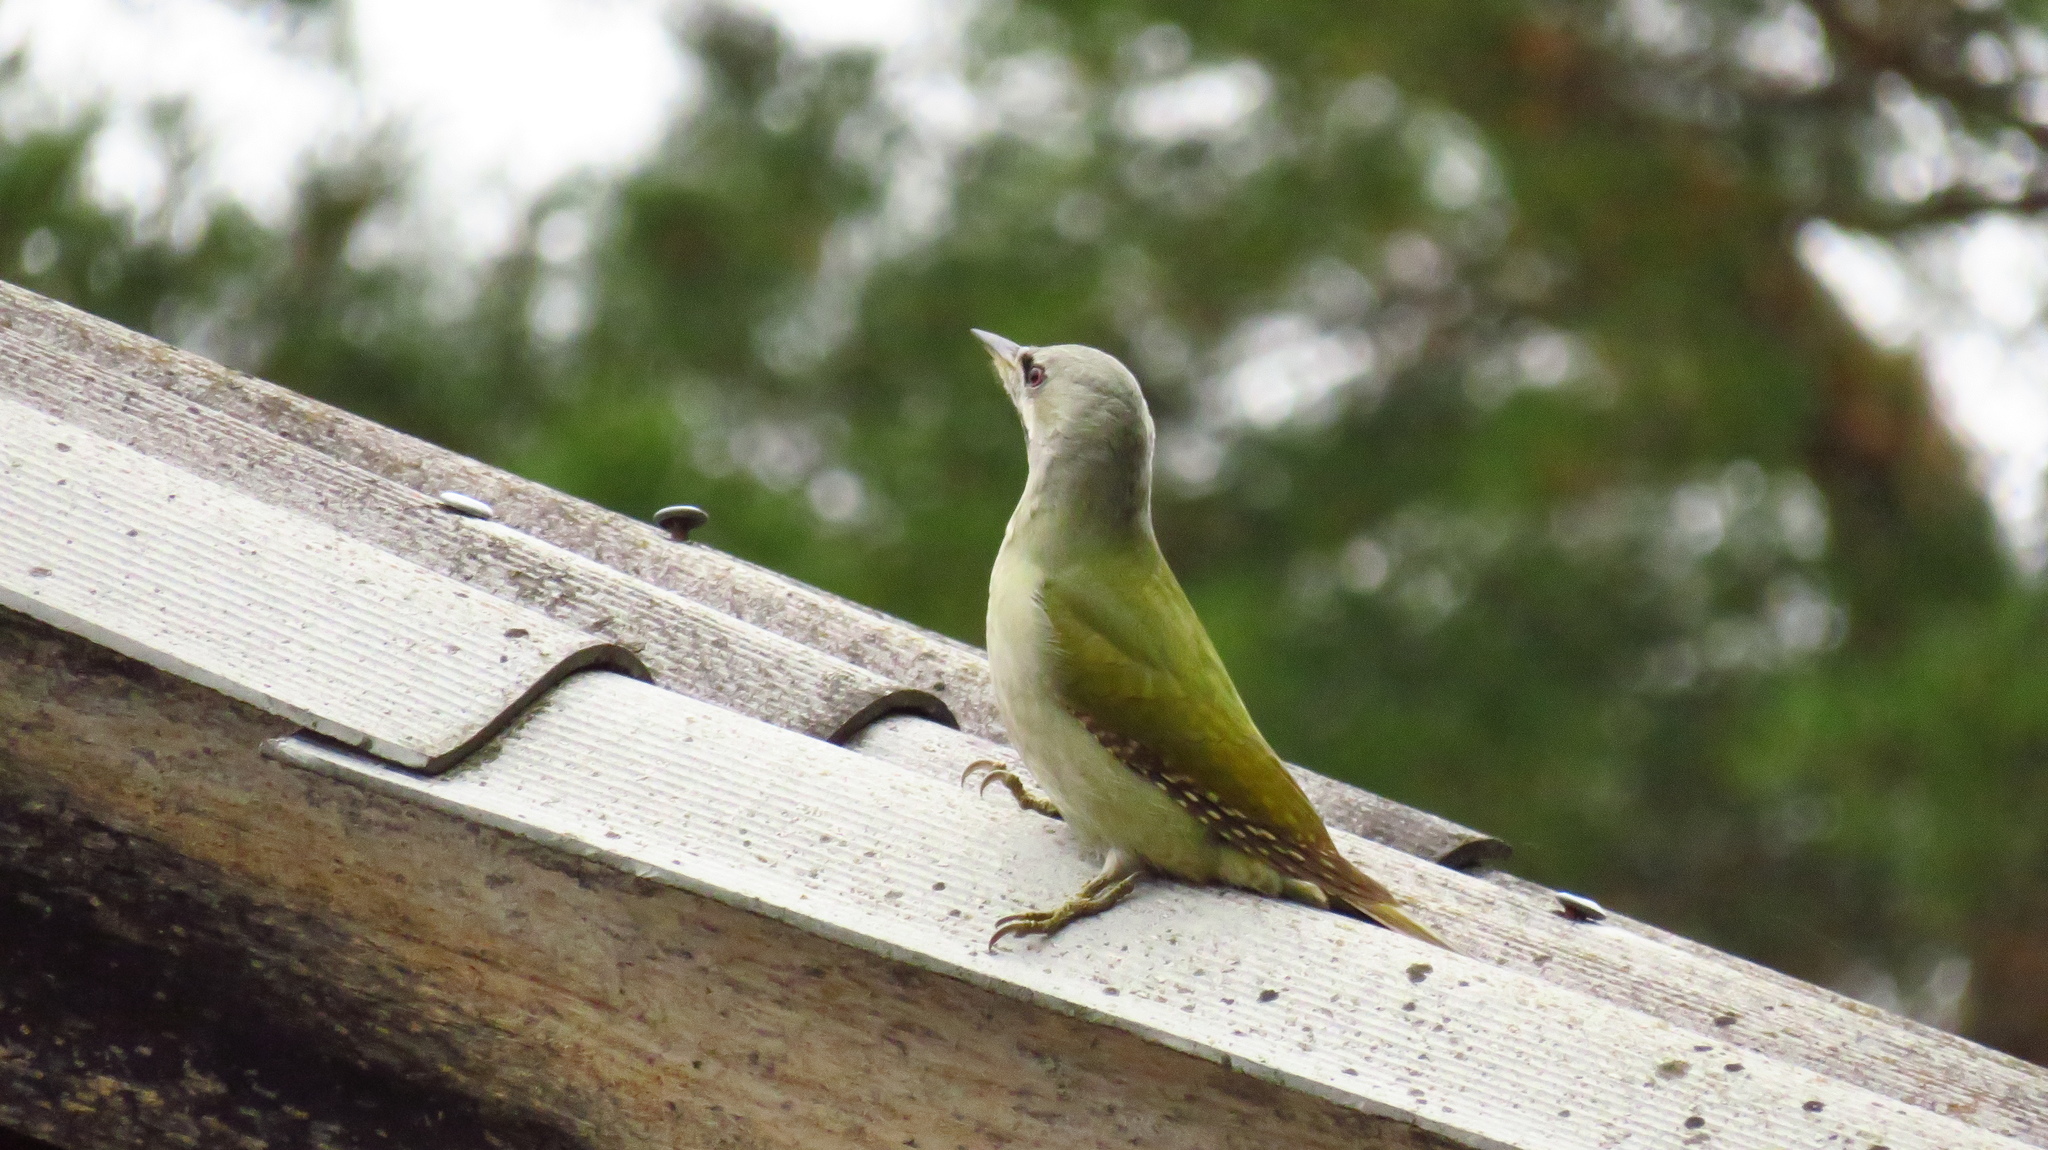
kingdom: Animalia
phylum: Chordata
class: Aves
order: Piciformes
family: Picidae
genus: Picus
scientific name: Picus canus
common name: Grey-headed woodpecker
